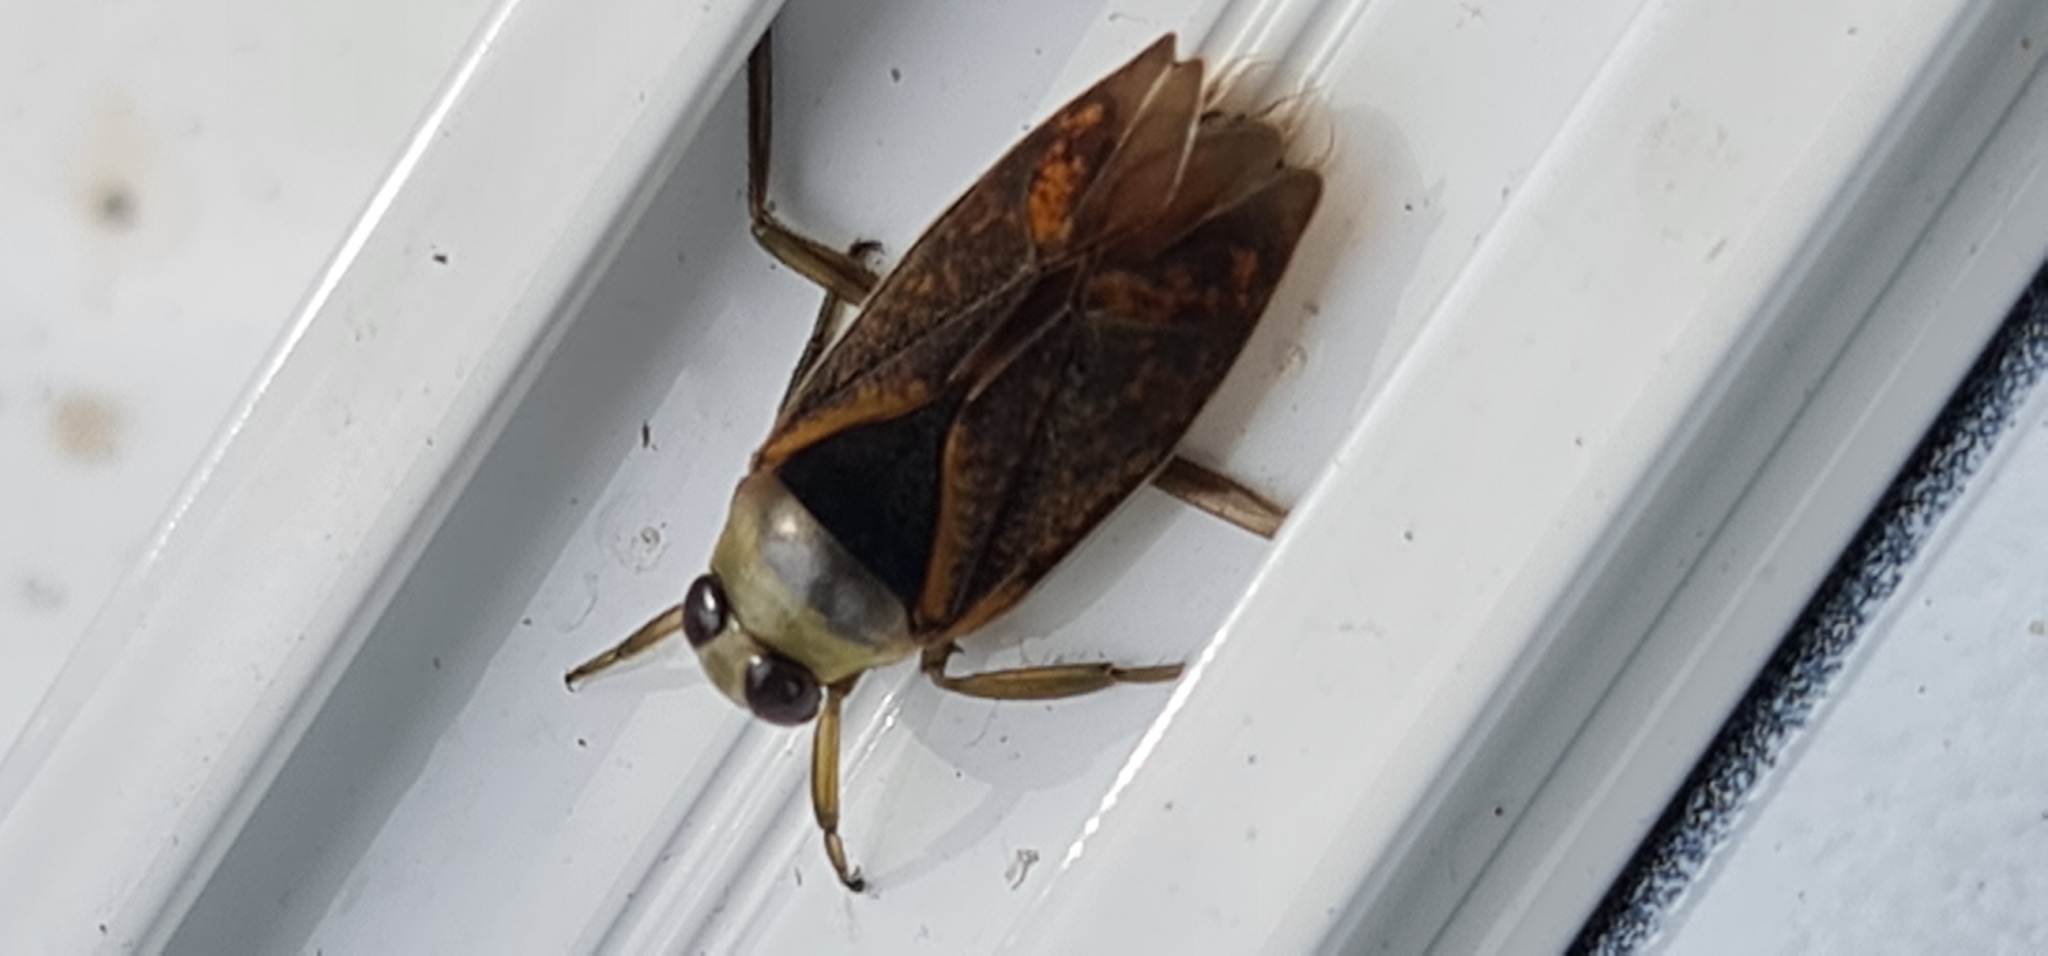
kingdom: Animalia
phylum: Arthropoda
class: Insecta
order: Hemiptera
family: Notonectidae
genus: Notonecta
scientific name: Notonecta maculata
